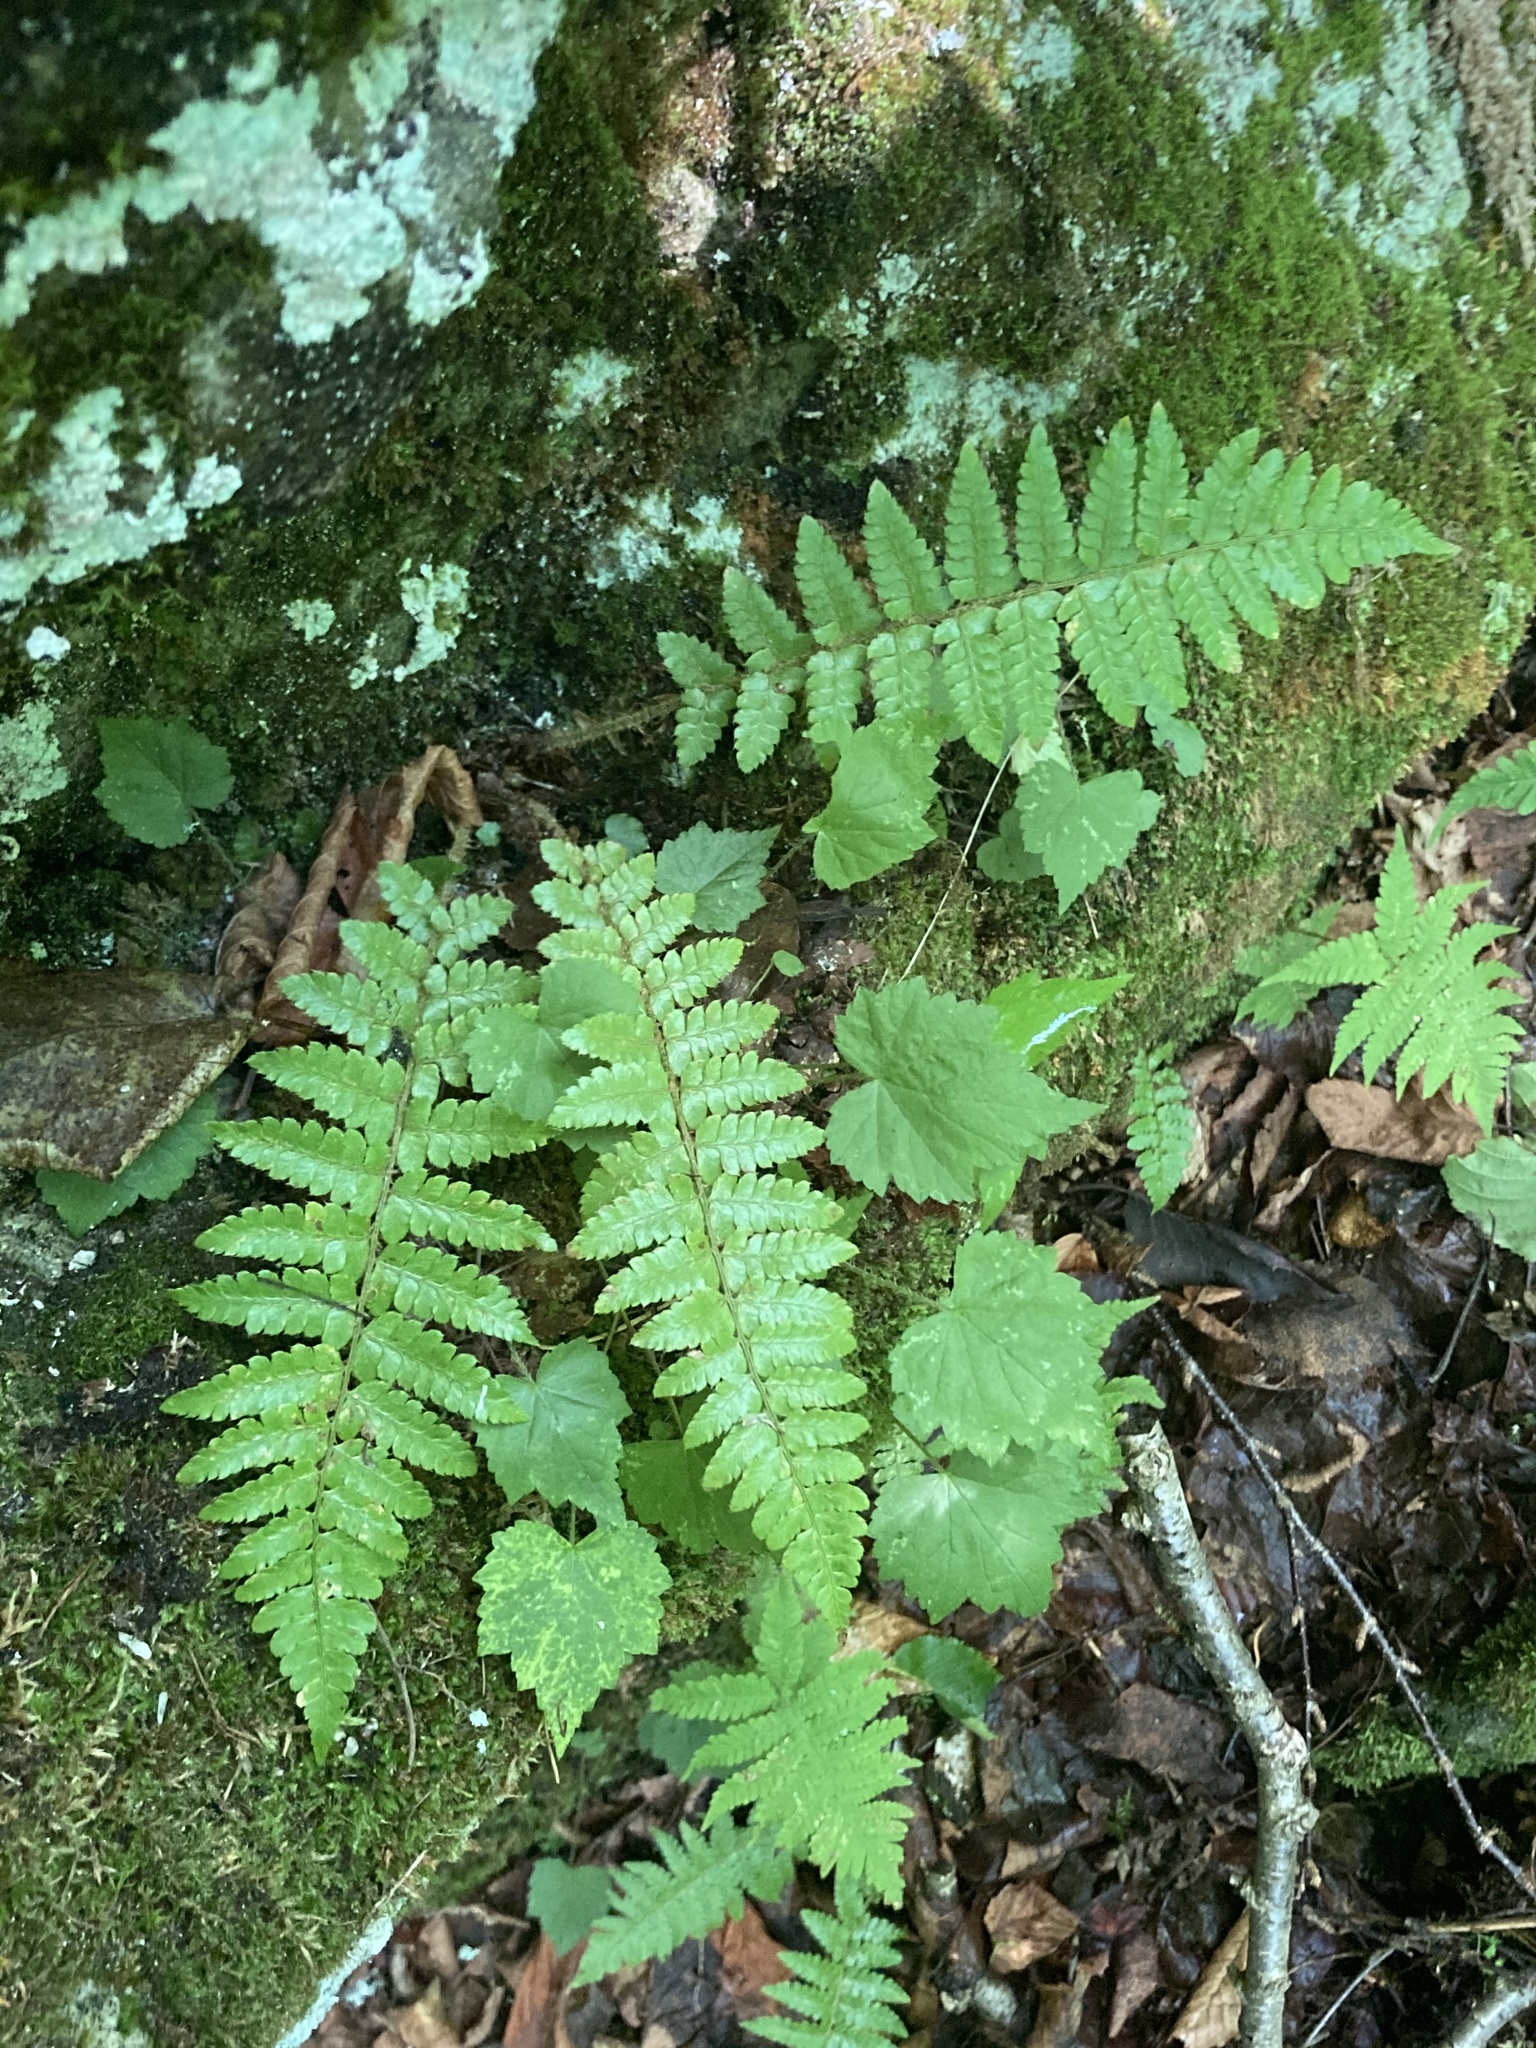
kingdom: Plantae
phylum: Tracheophyta
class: Polypodiopsida
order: Polypodiales
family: Dryopteridaceae
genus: Polystichum
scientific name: Polystichum braunii
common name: Braun's holly fern
